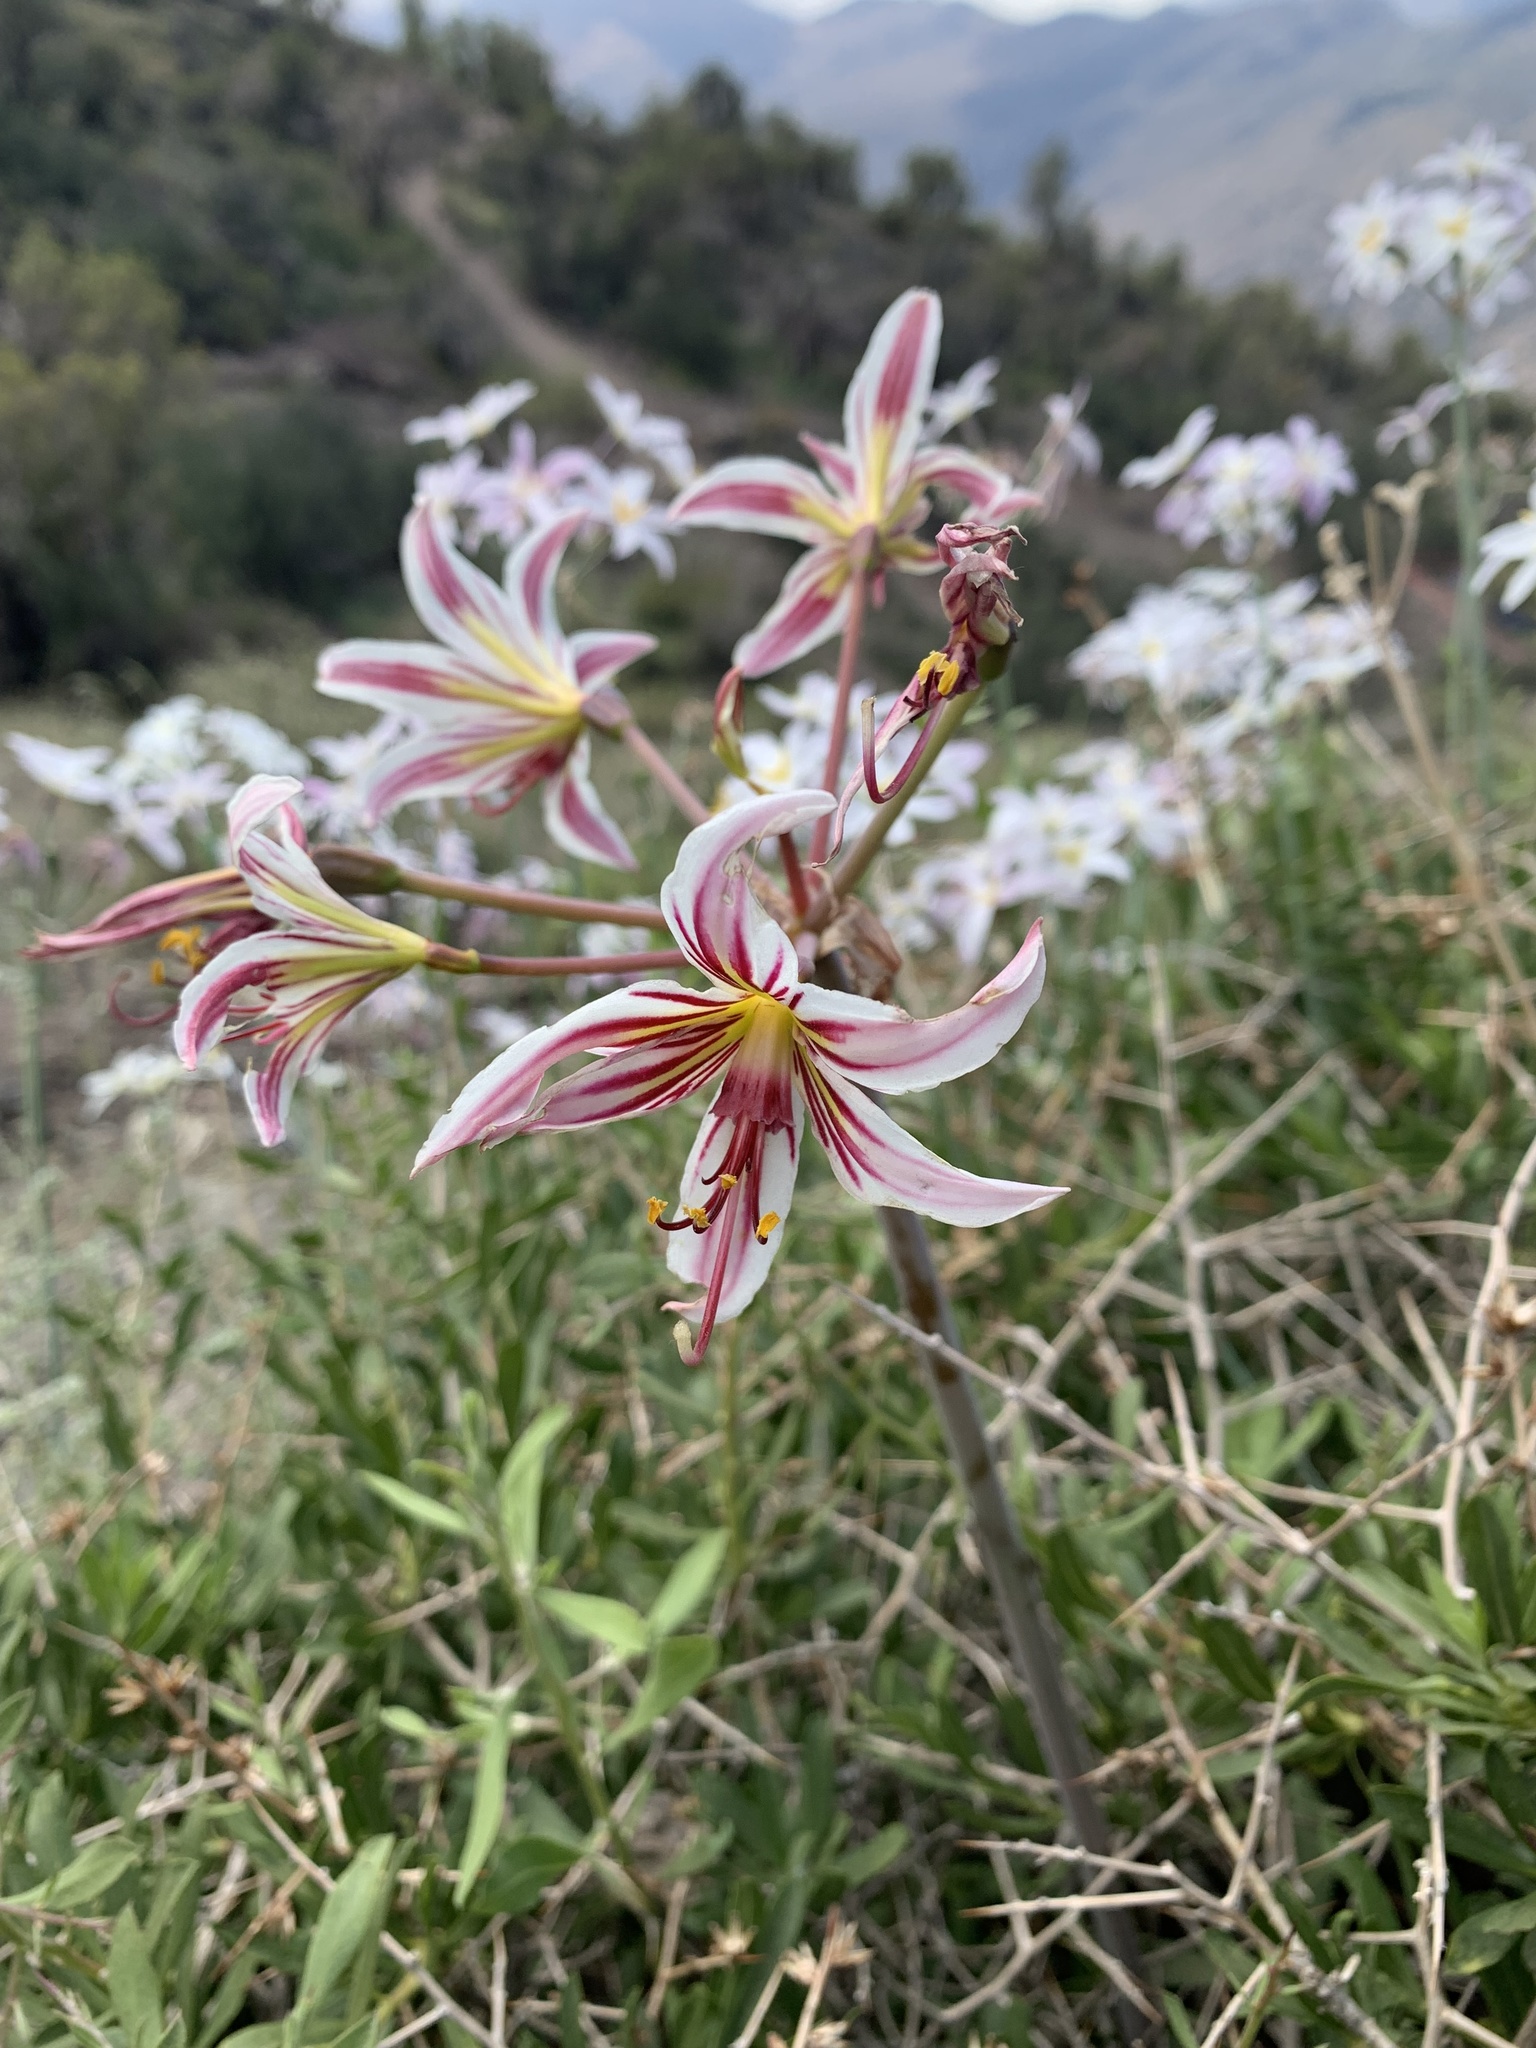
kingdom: Plantae
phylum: Tracheophyta
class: Liliopsida
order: Asparagales
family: Amaryllidaceae
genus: Phycella
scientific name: Phycella arzae
